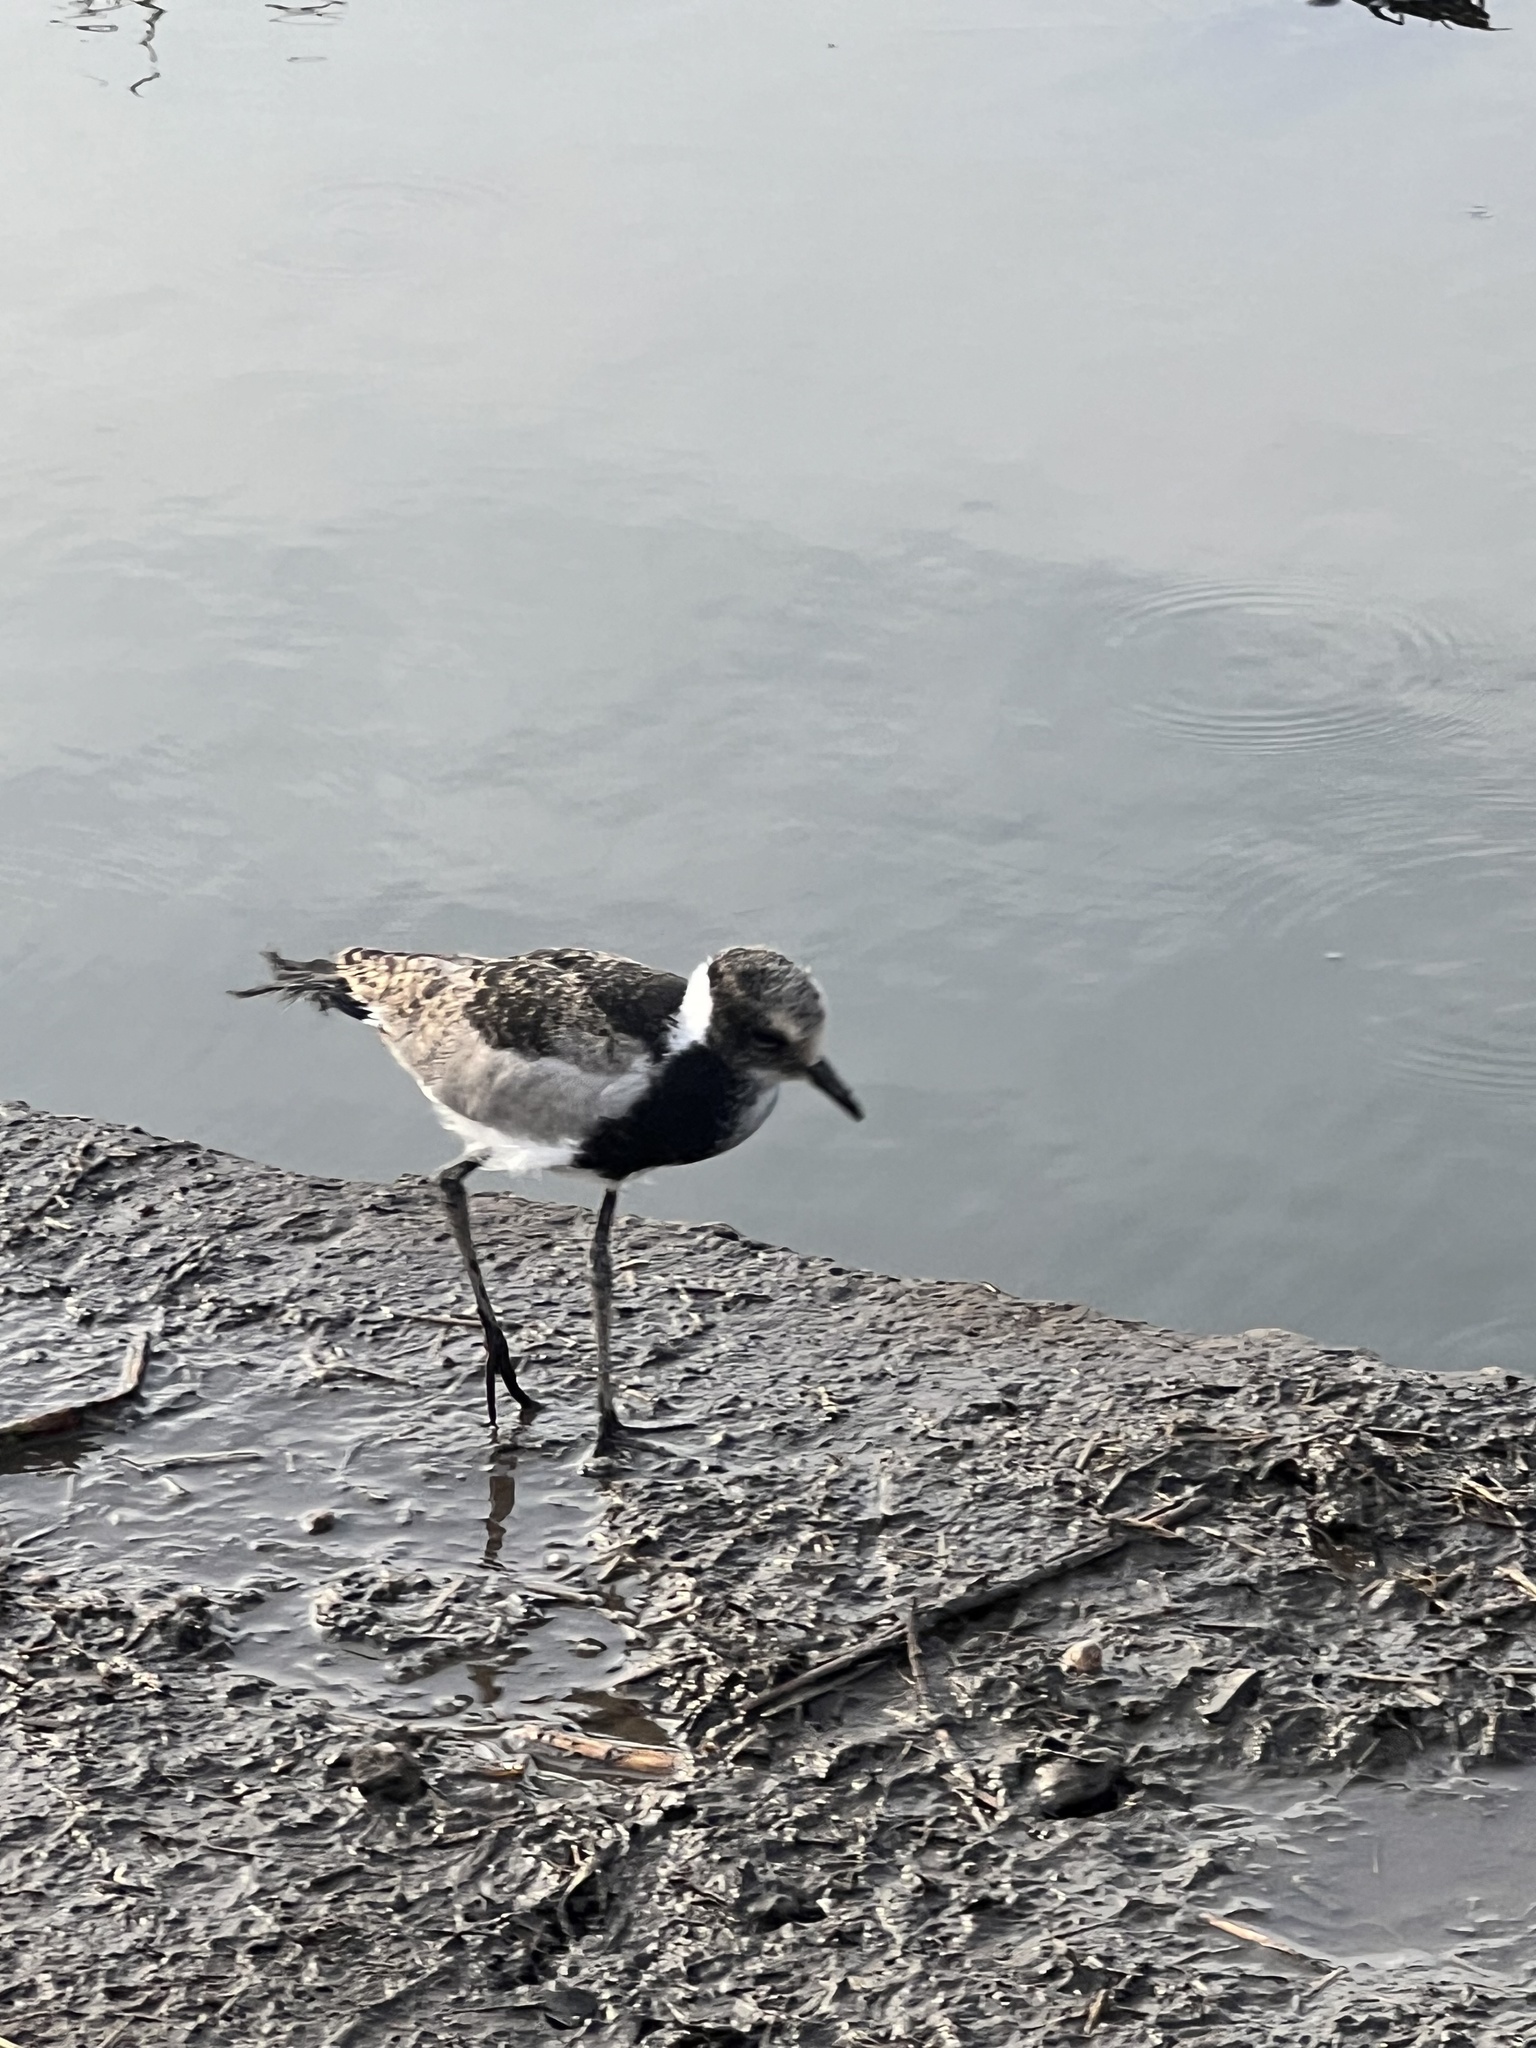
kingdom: Animalia
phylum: Chordata
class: Aves
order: Charadriiformes
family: Charadriidae
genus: Vanellus
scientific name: Vanellus armatus
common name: Blacksmith lapwing
